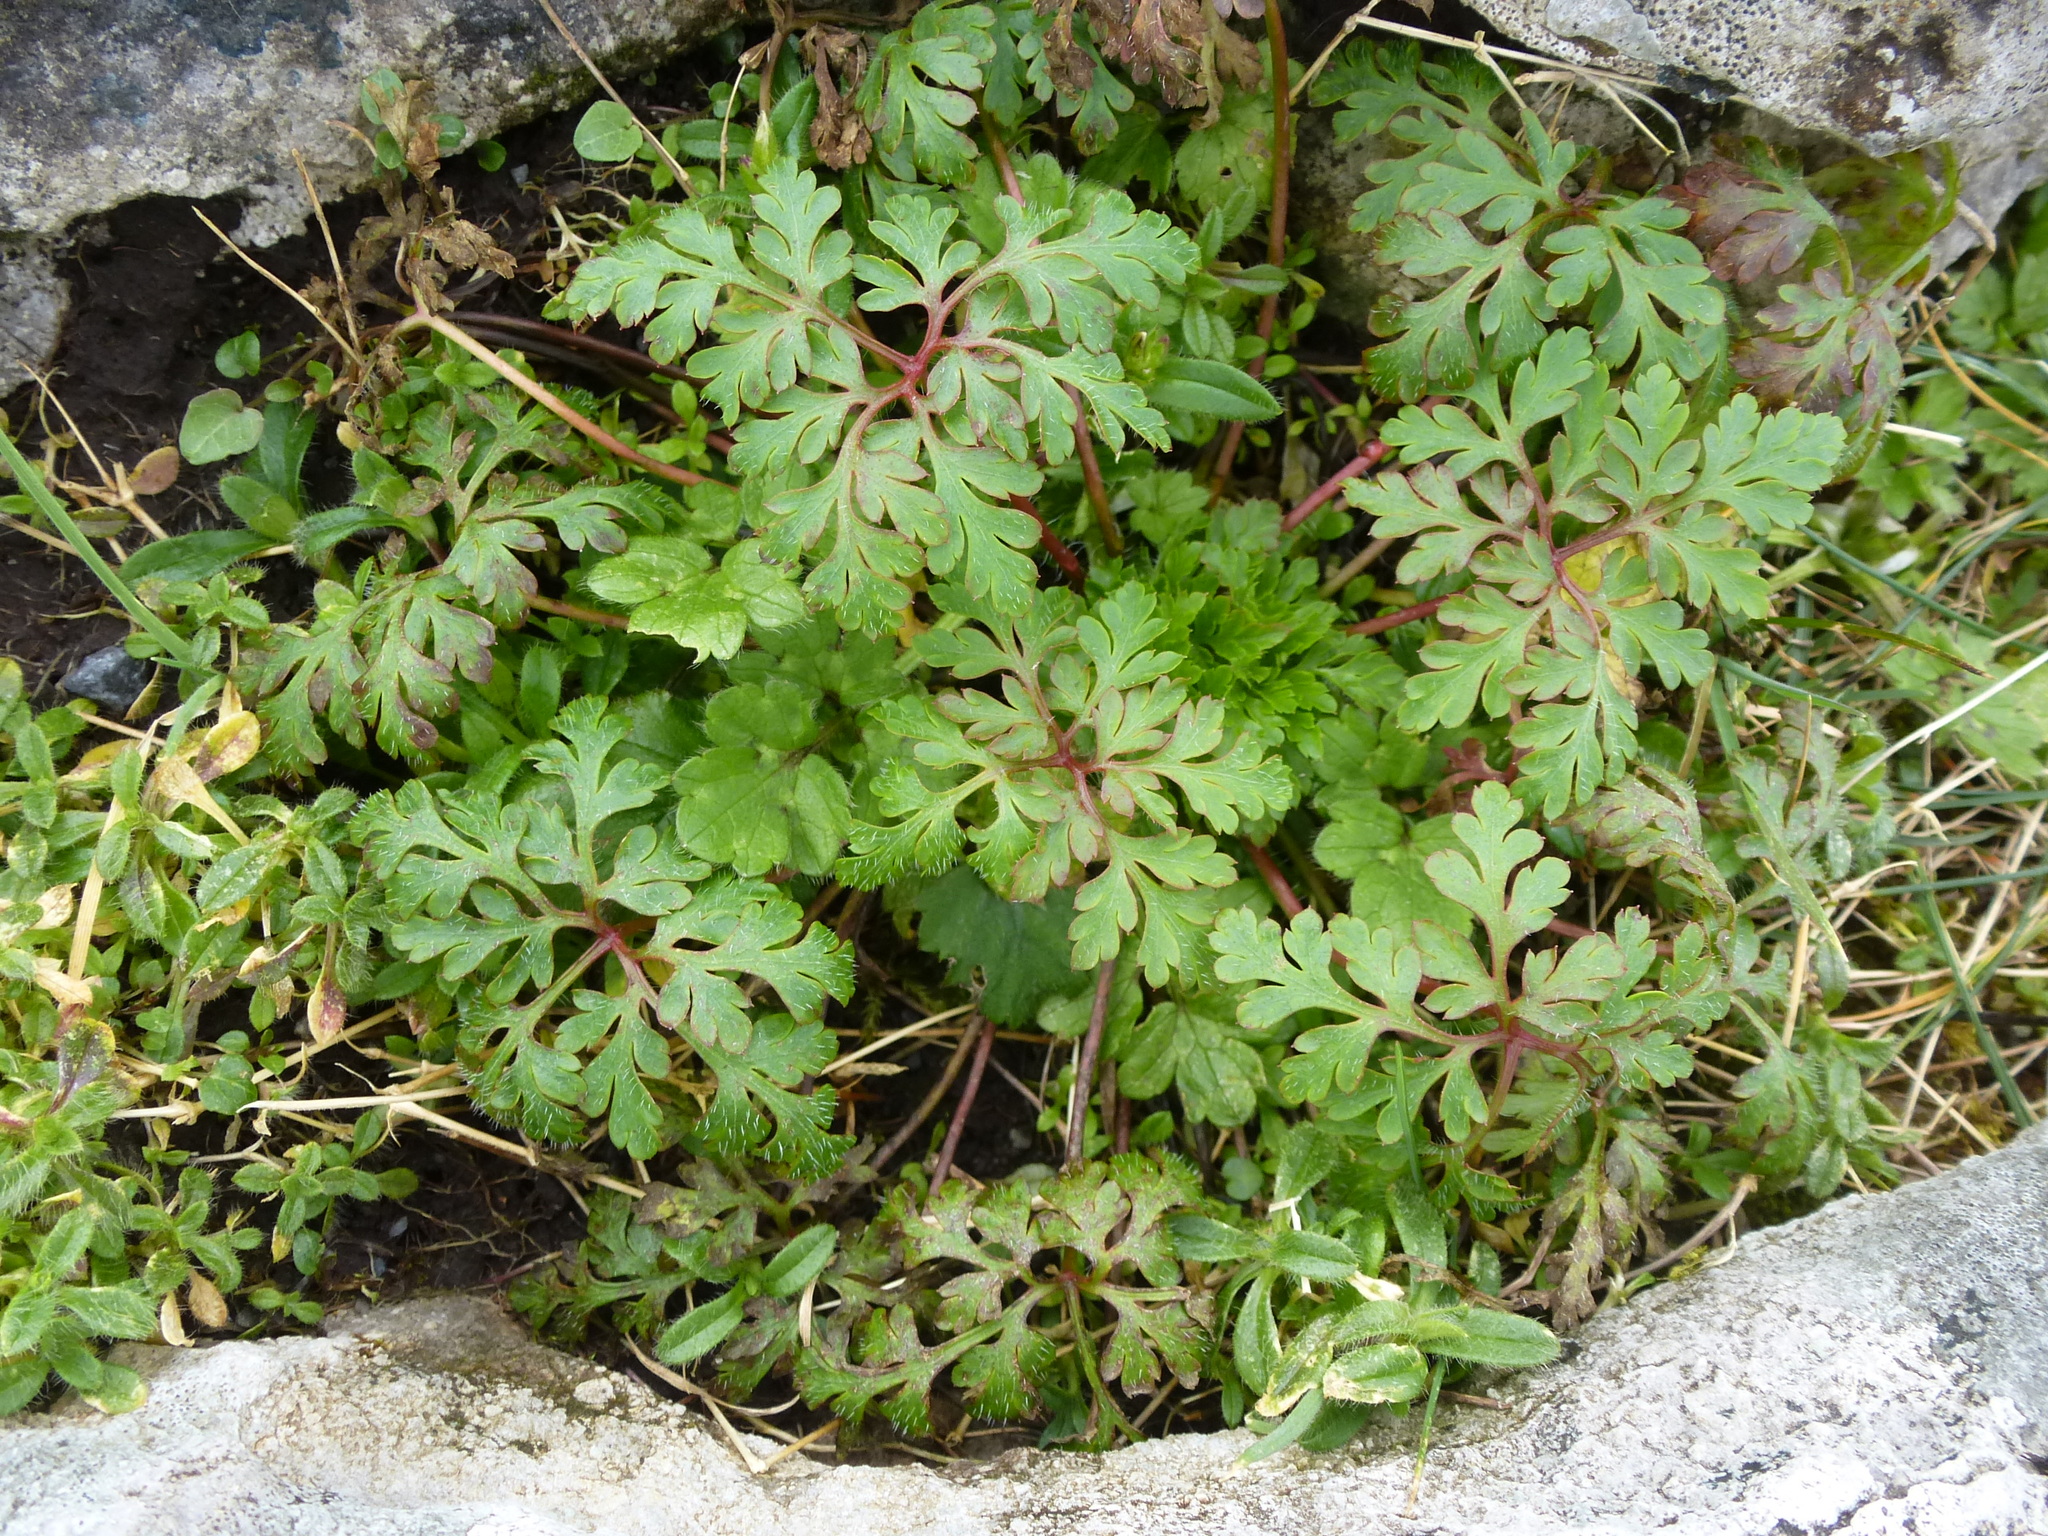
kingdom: Plantae
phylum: Tracheophyta
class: Magnoliopsida
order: Geraniales
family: Geraniaceae
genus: Geranium
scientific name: Geranium robertianum
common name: Herb-robert
